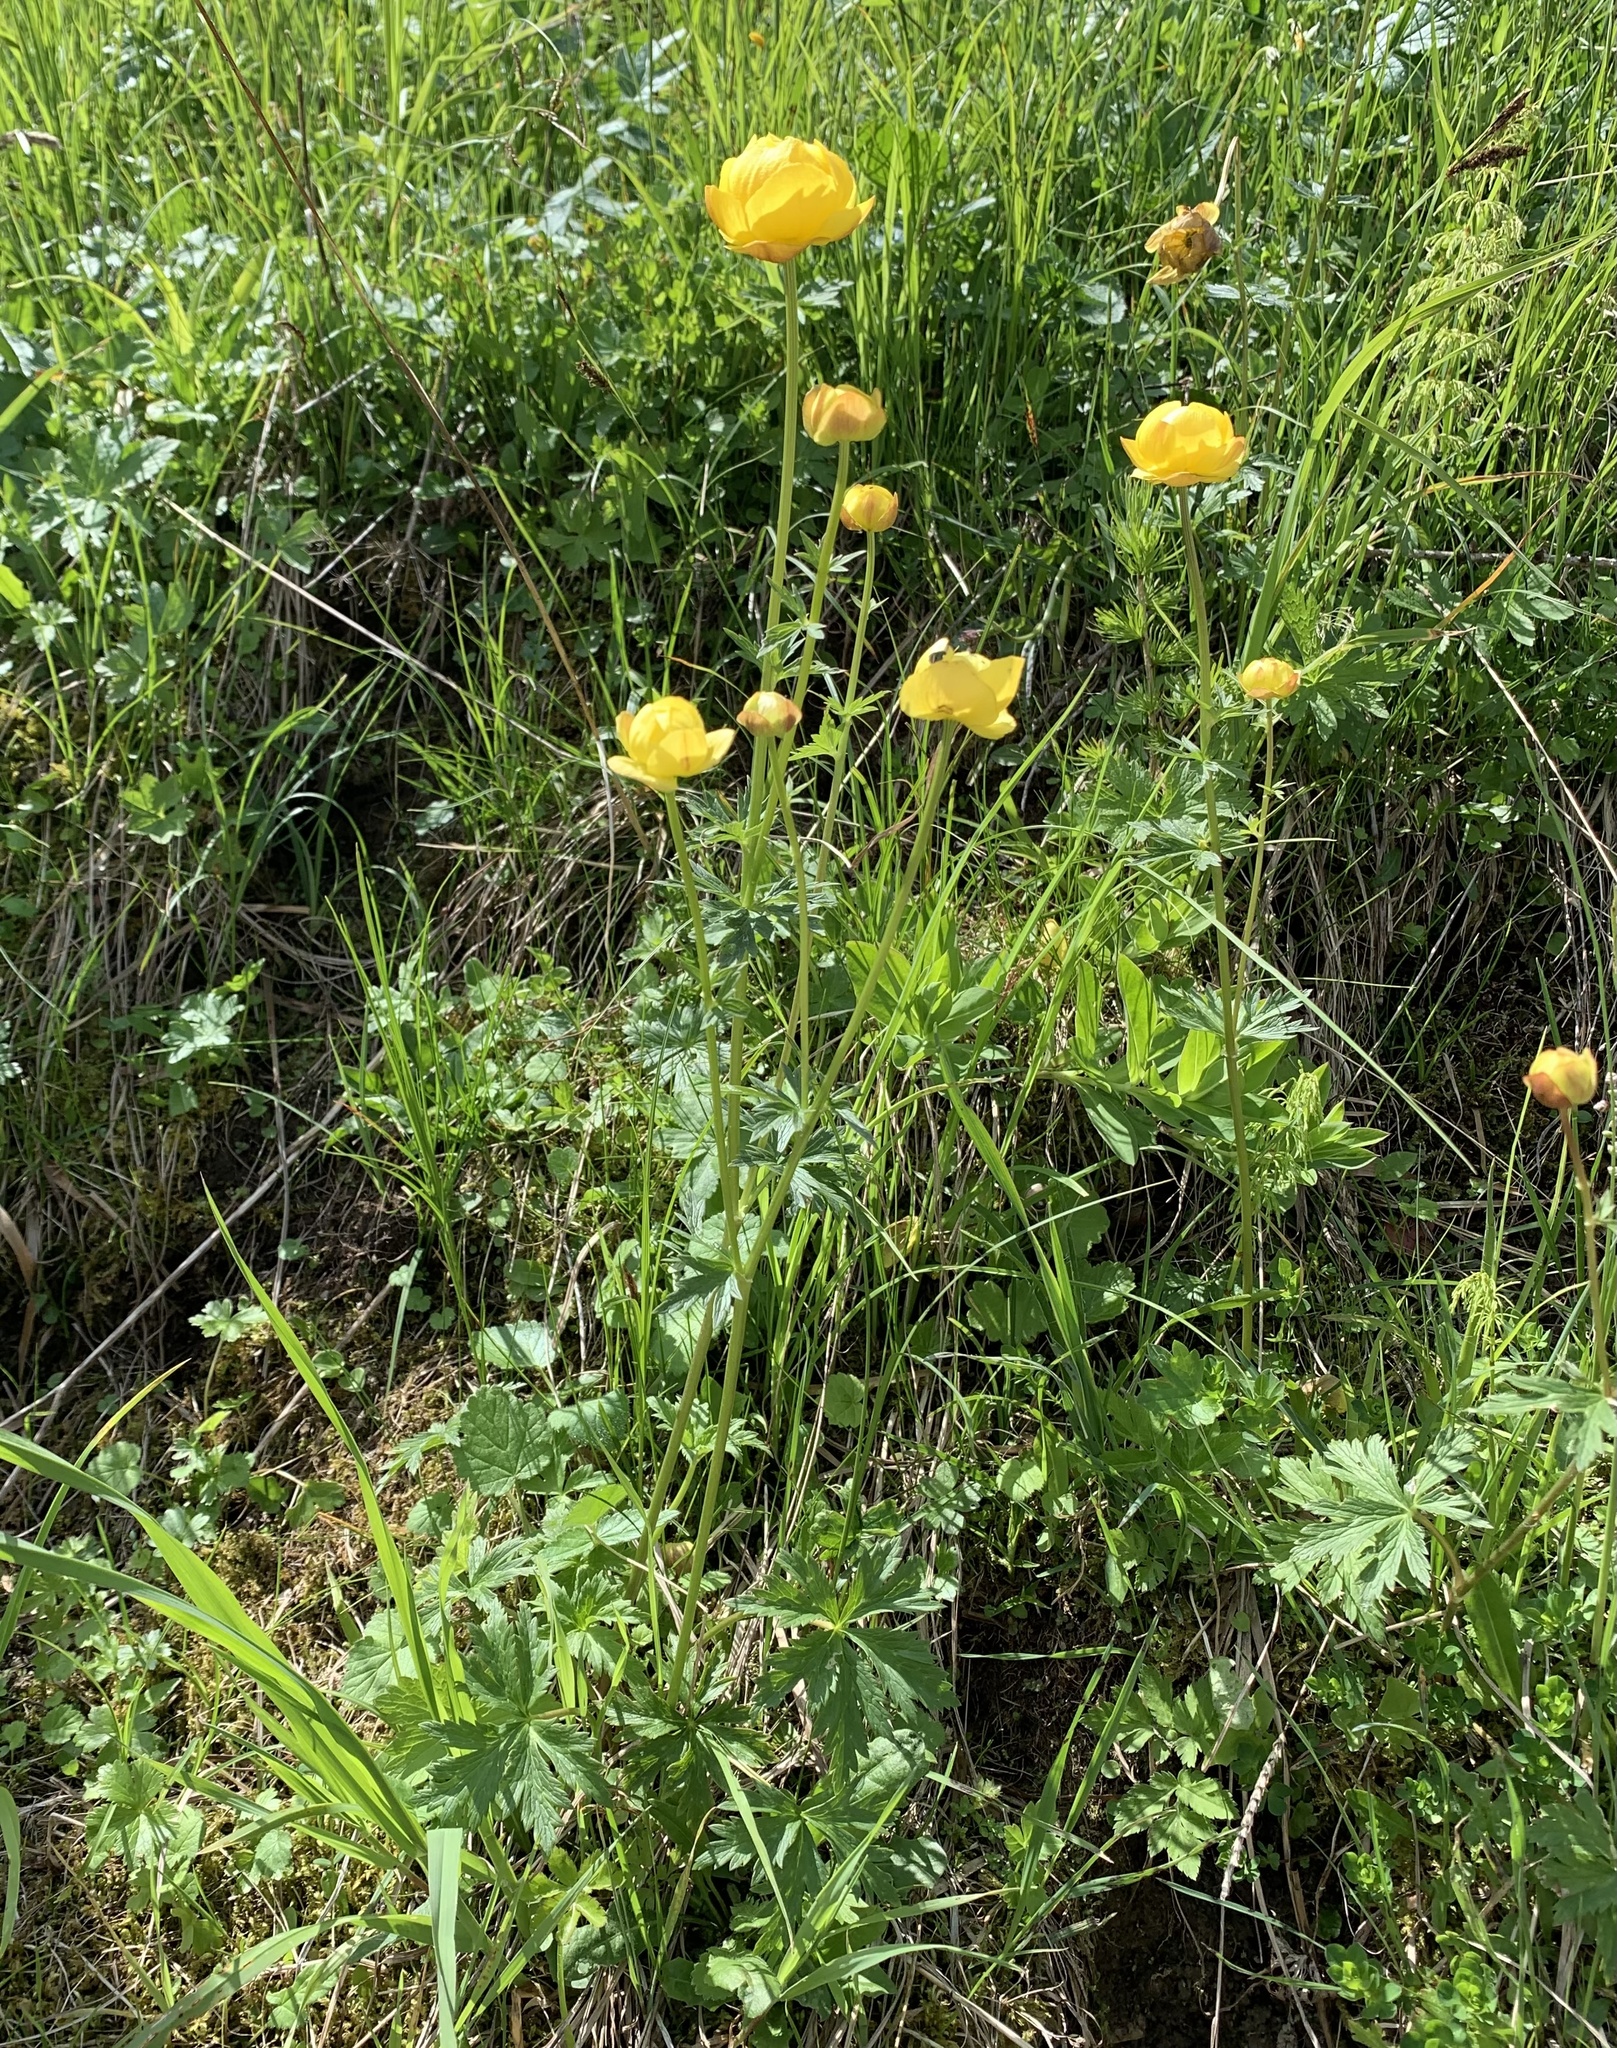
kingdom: Plantae
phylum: Tracheophyta
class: Magnoliopsida
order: Ranunculales
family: Ranunculaceae
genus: Trollius
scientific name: Trollius europaeus
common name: European globeflower
